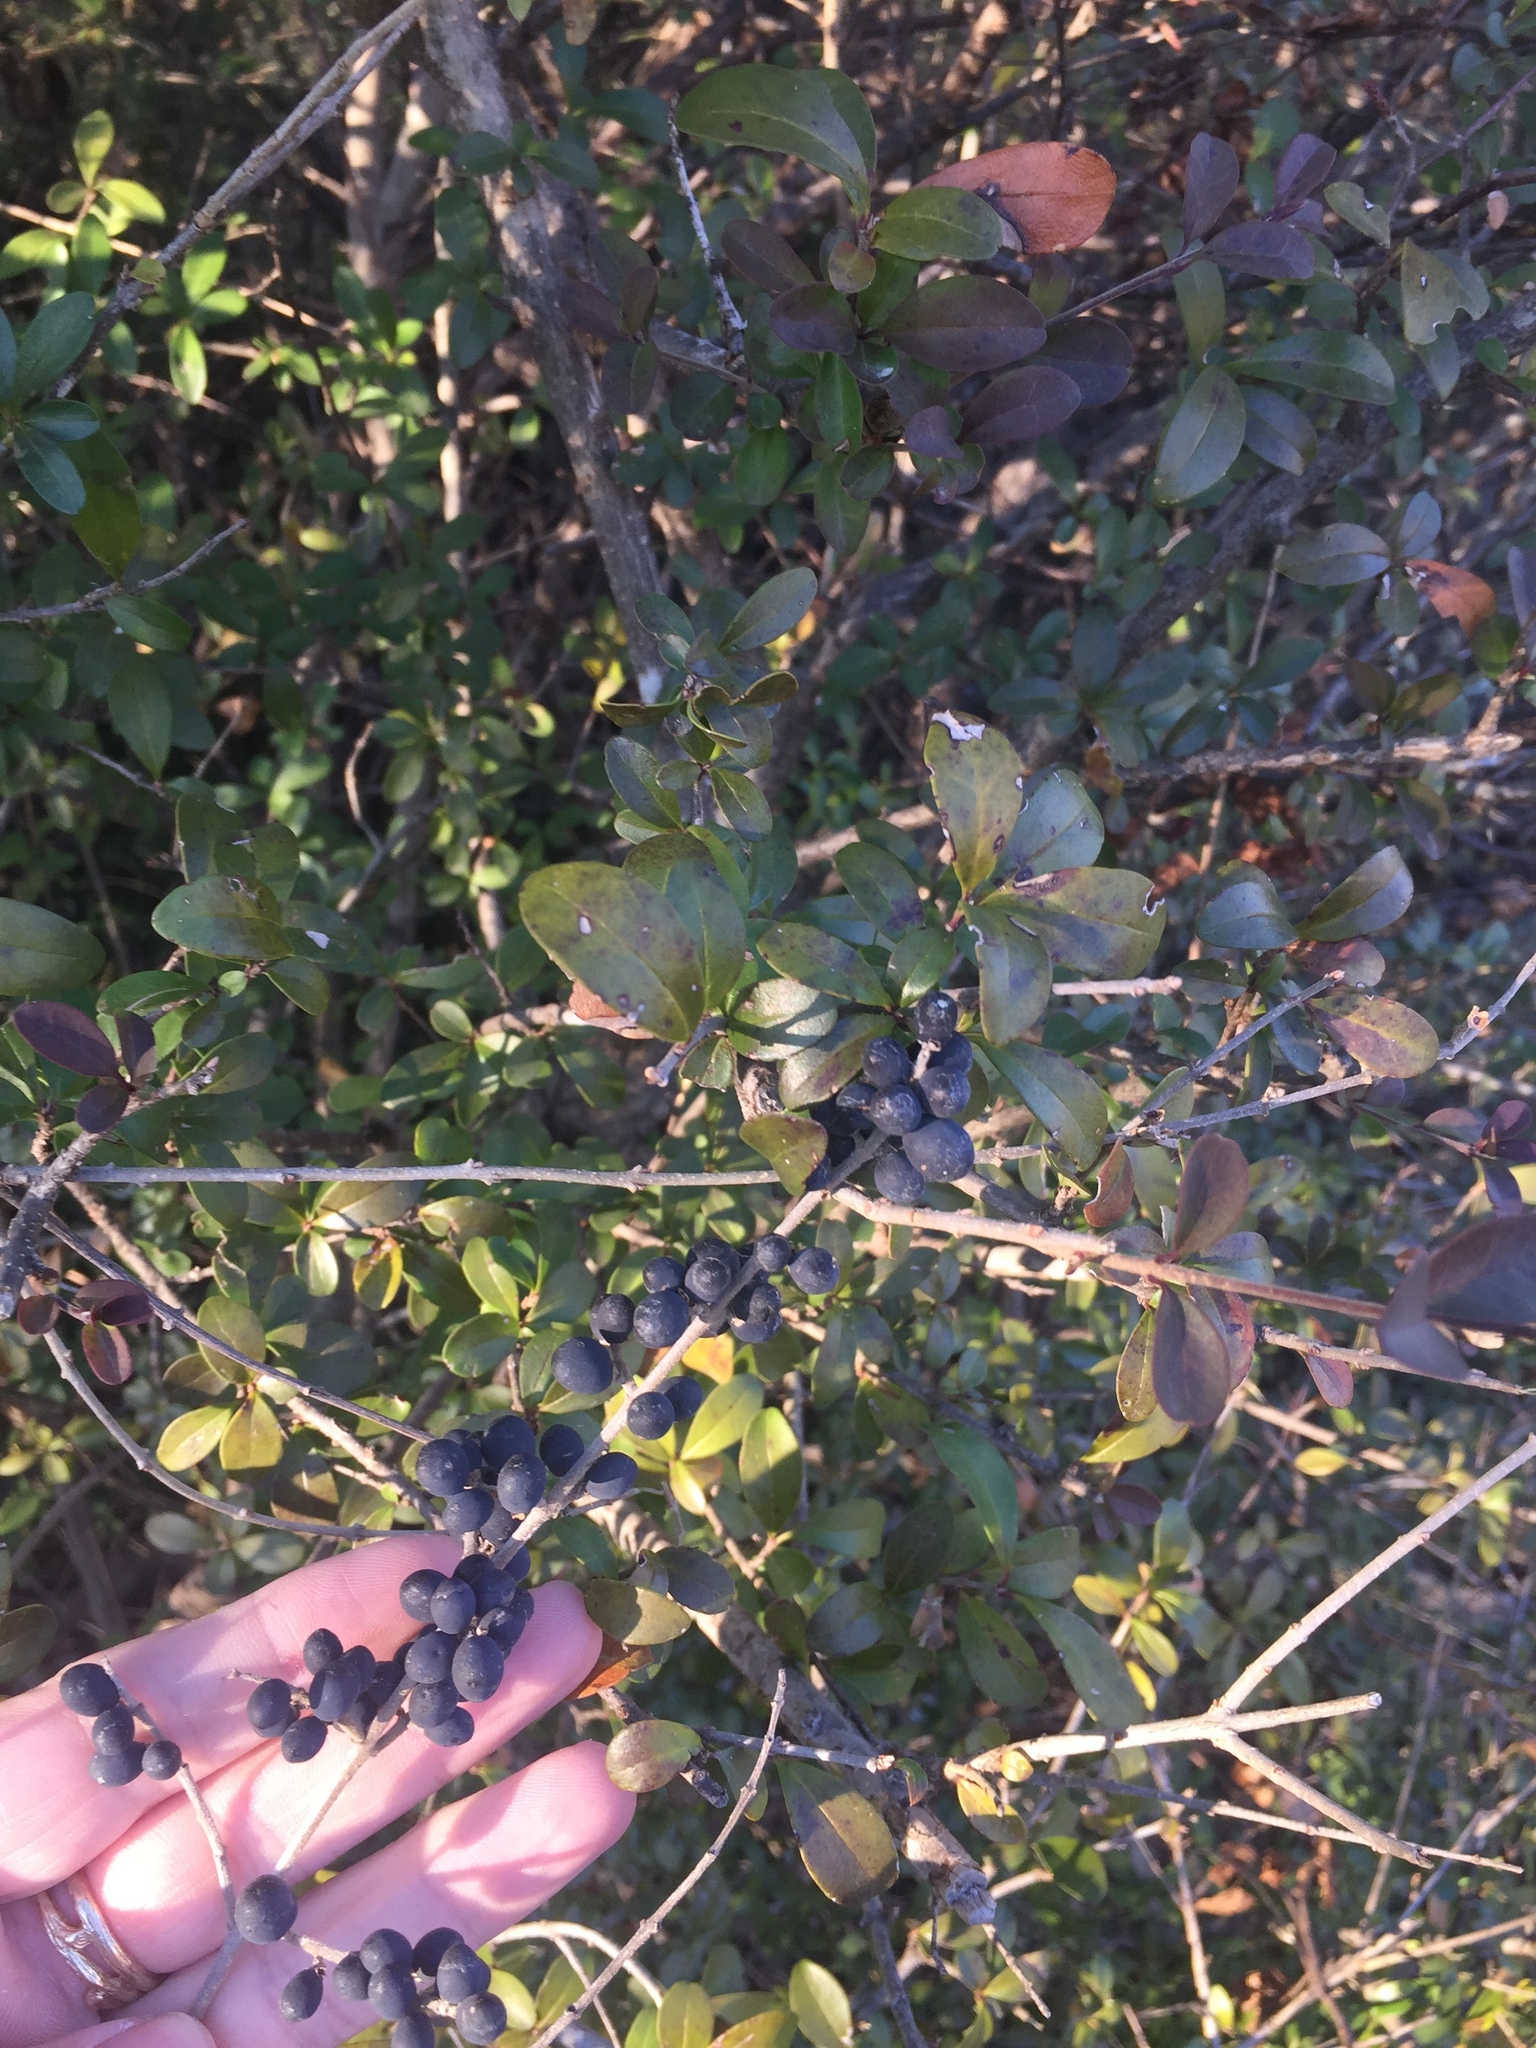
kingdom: Plantae
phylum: Tracheophyta
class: Magnoliopsida
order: Lamiales
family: Oleaceae
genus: Ligustrum
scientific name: Ligustrum quihoui
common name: Waxyleaf privet
